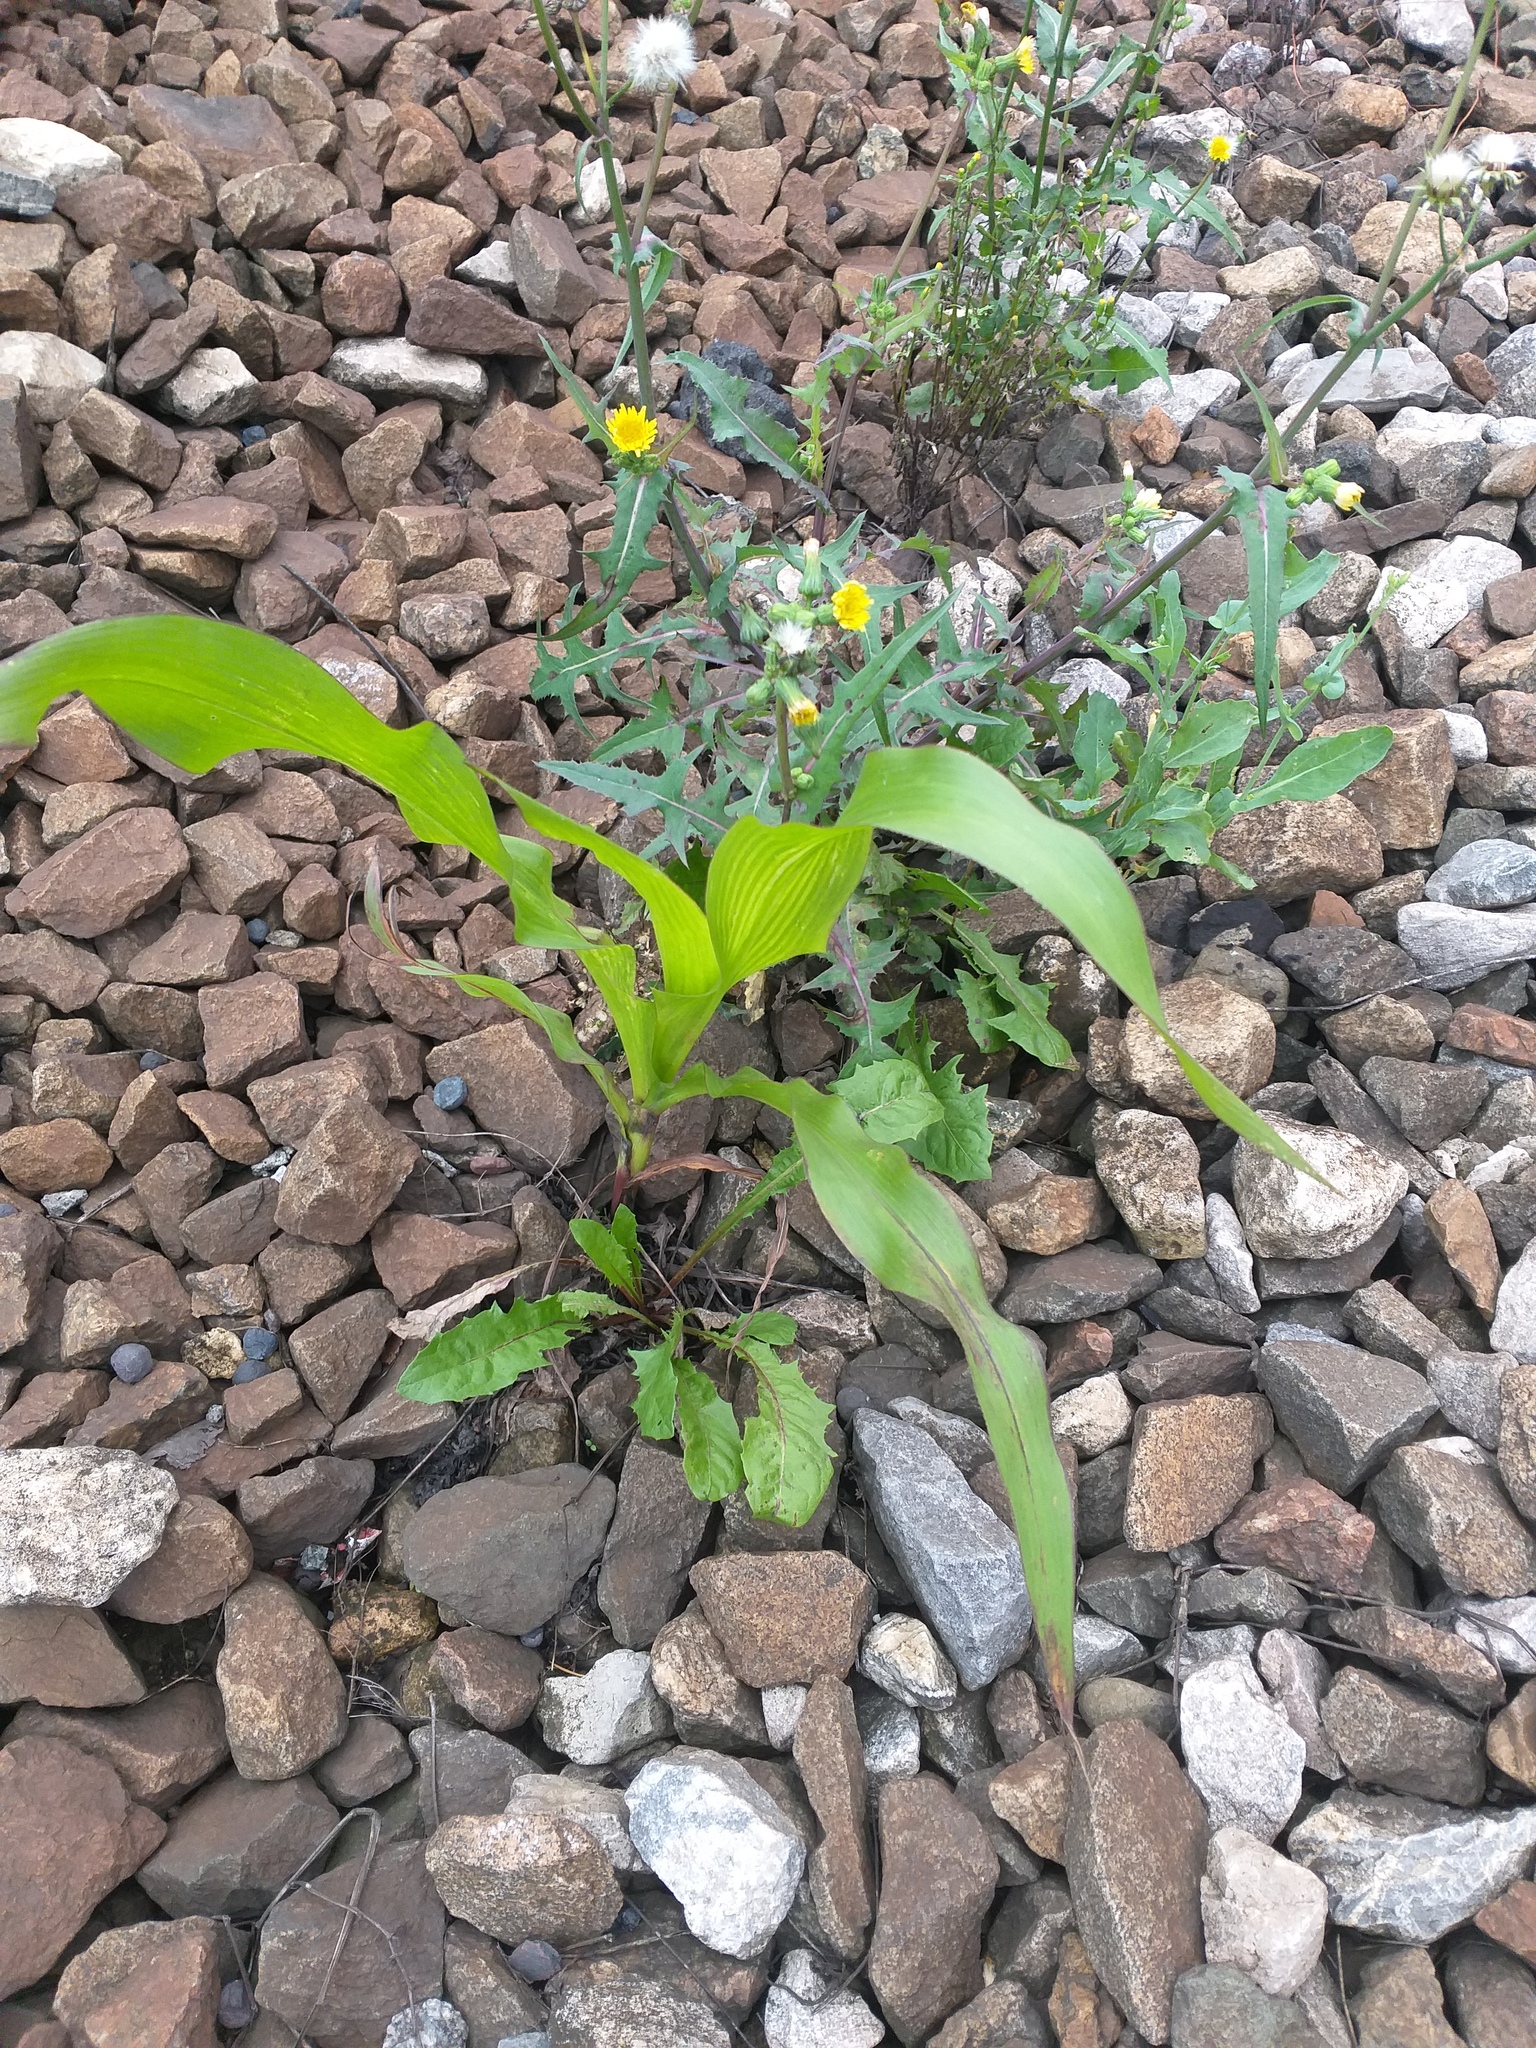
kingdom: Plantae
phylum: Tracheophyta
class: Liliopsida
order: Poales
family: Poaceae
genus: Zea
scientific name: Zea mays
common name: Maize
